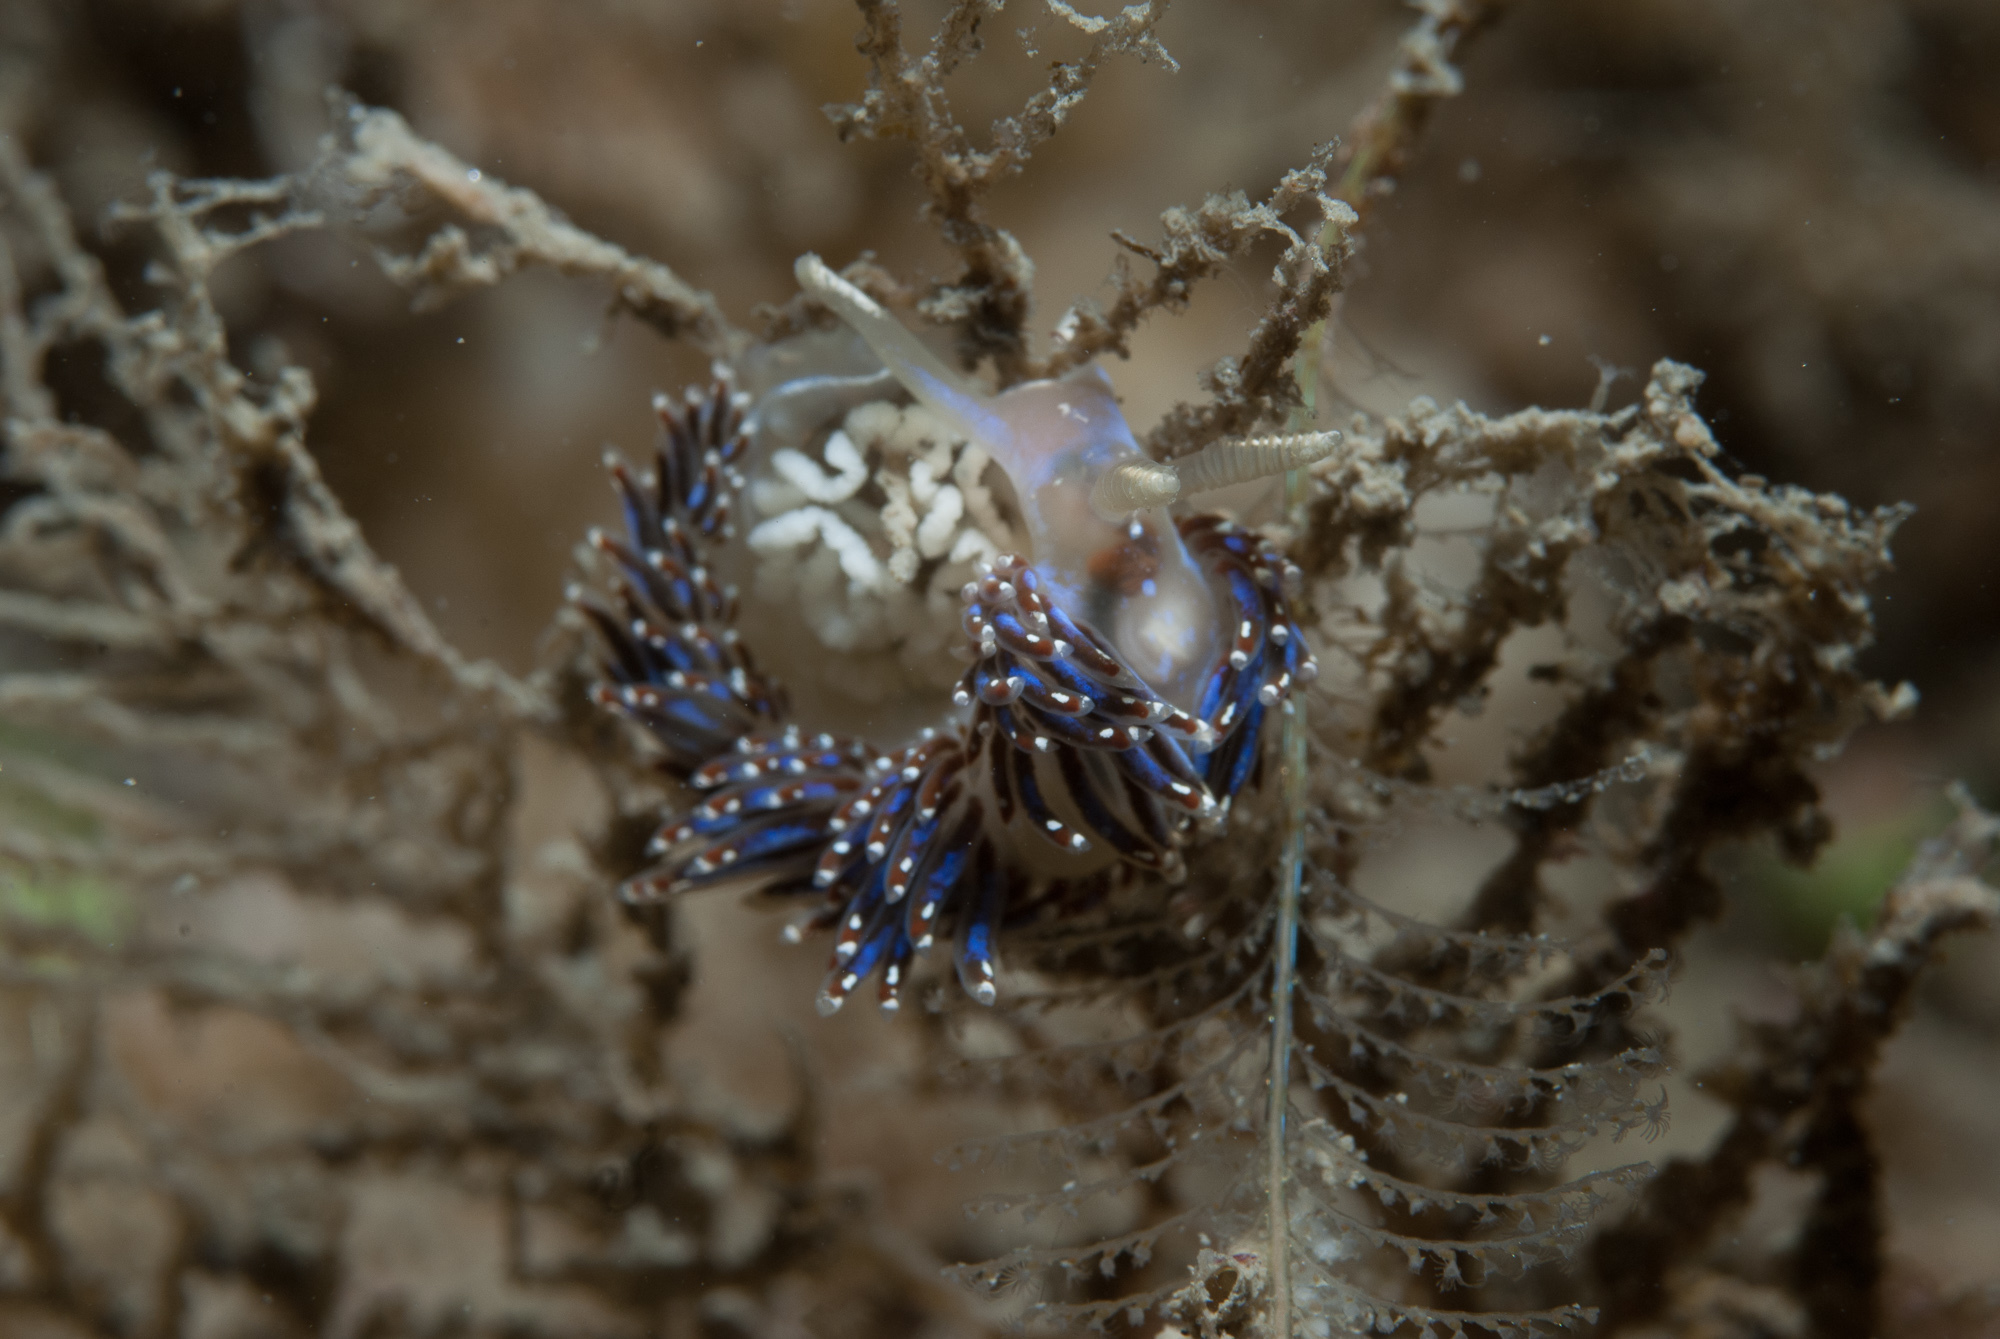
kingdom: Animalia
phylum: Mollusca
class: Gastropoda
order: Nudibranchia
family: Facelinidae
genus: Facelina
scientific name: Facelina auriculata
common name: Slender facelina
